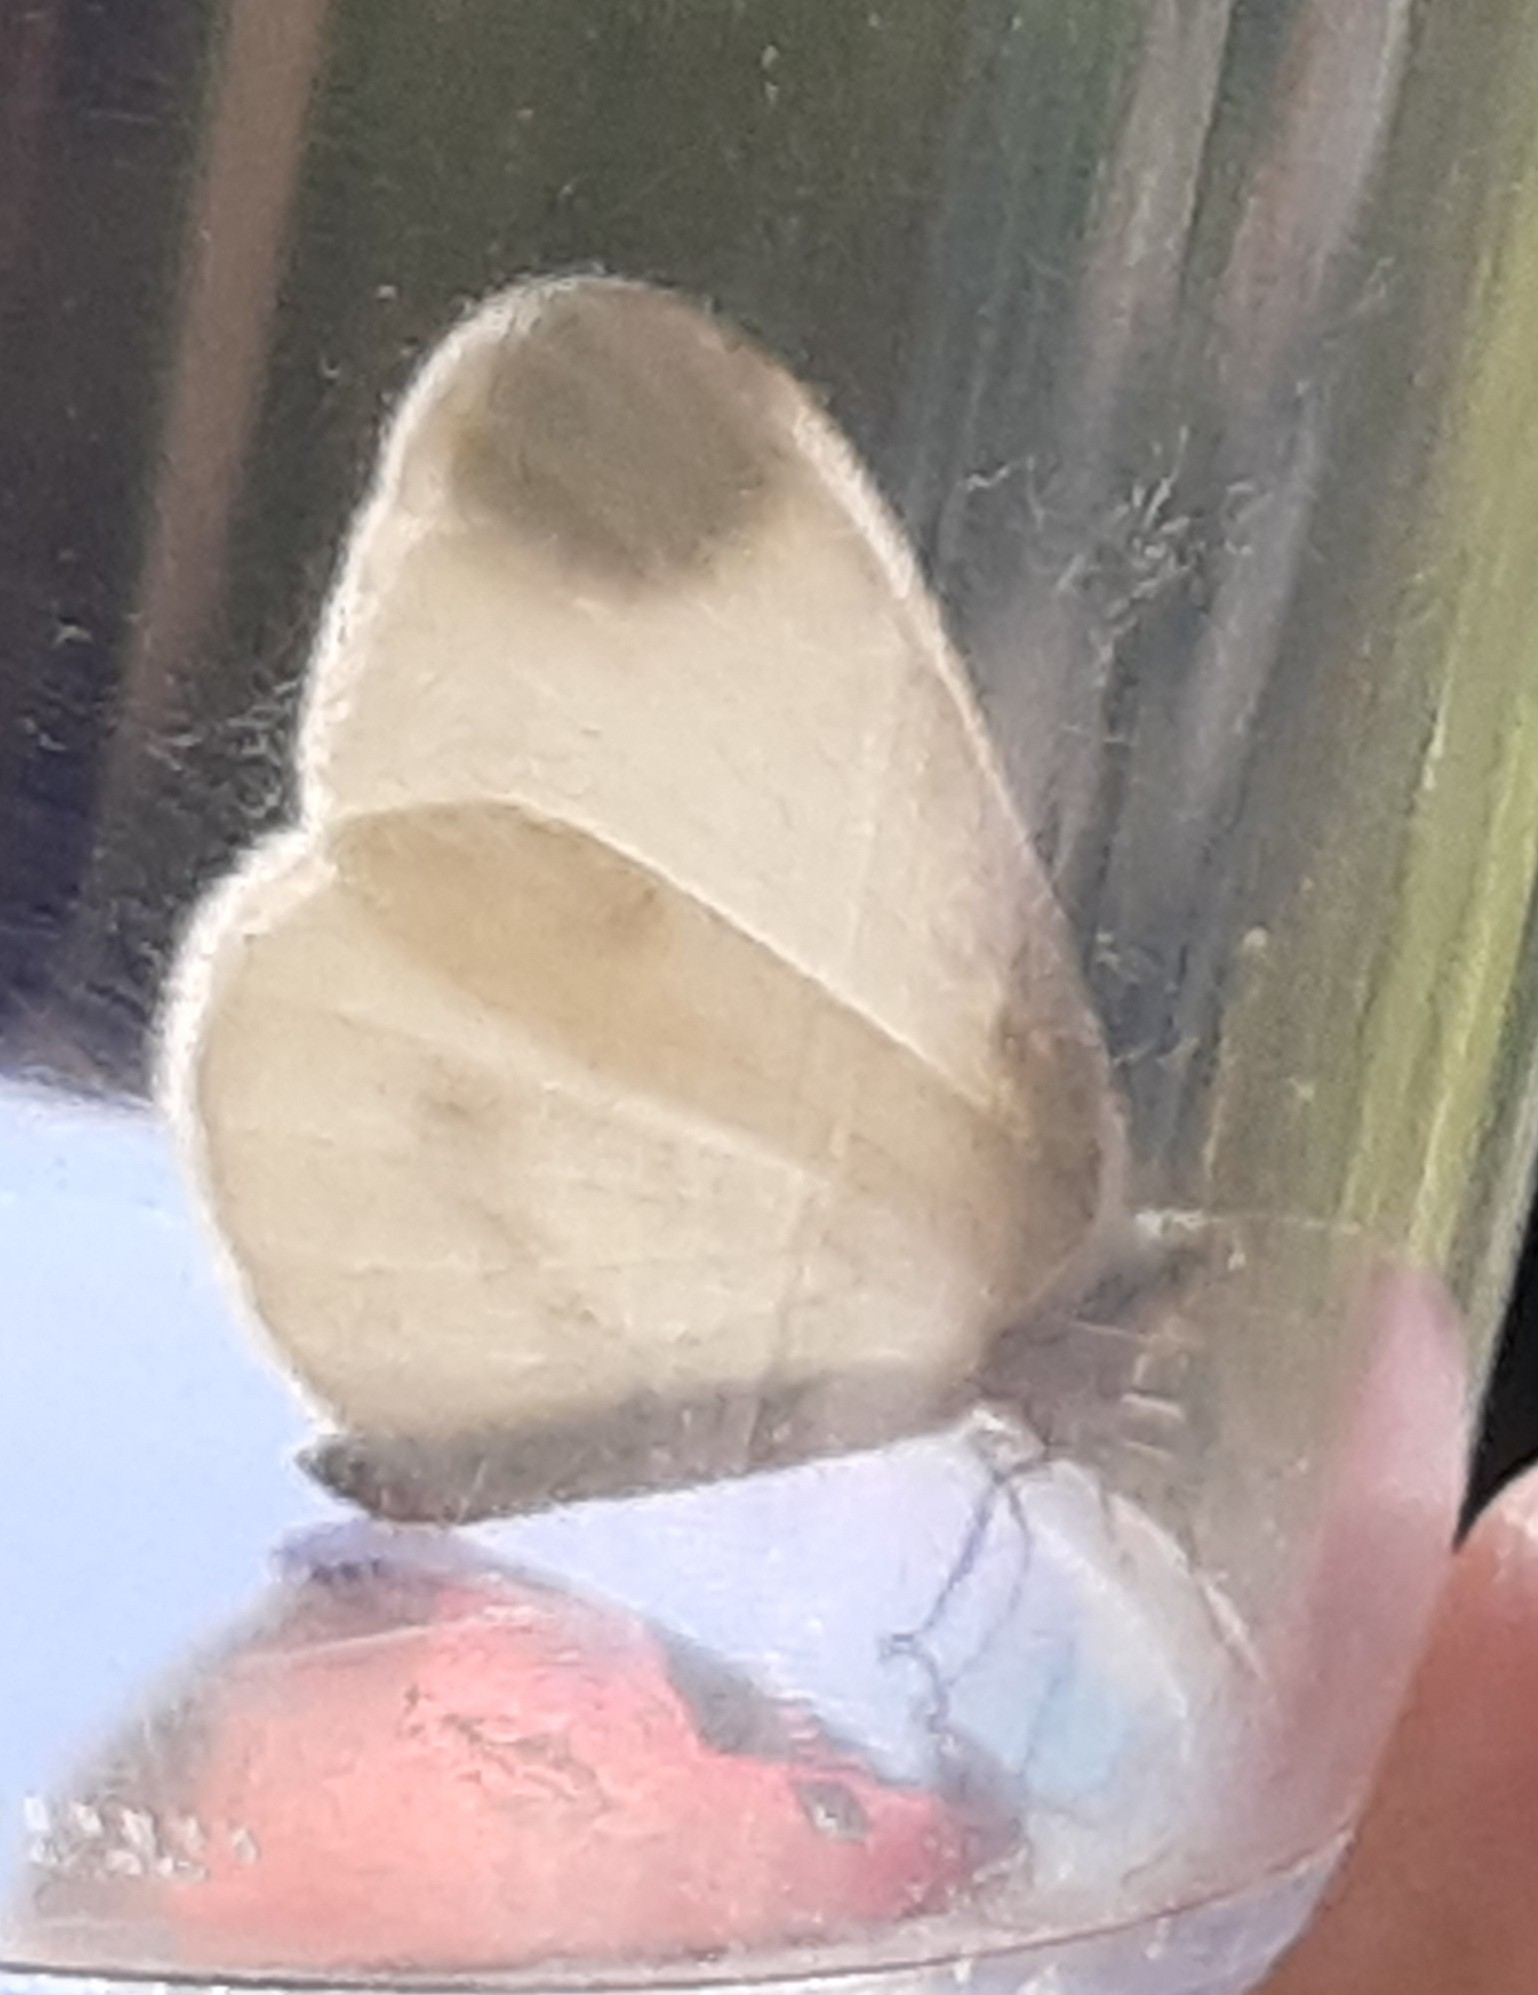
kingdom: Animalia
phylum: Arthropoda
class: Insecta
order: Lepidoptera
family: Pieridae
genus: Leptidea
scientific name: Leptidea
